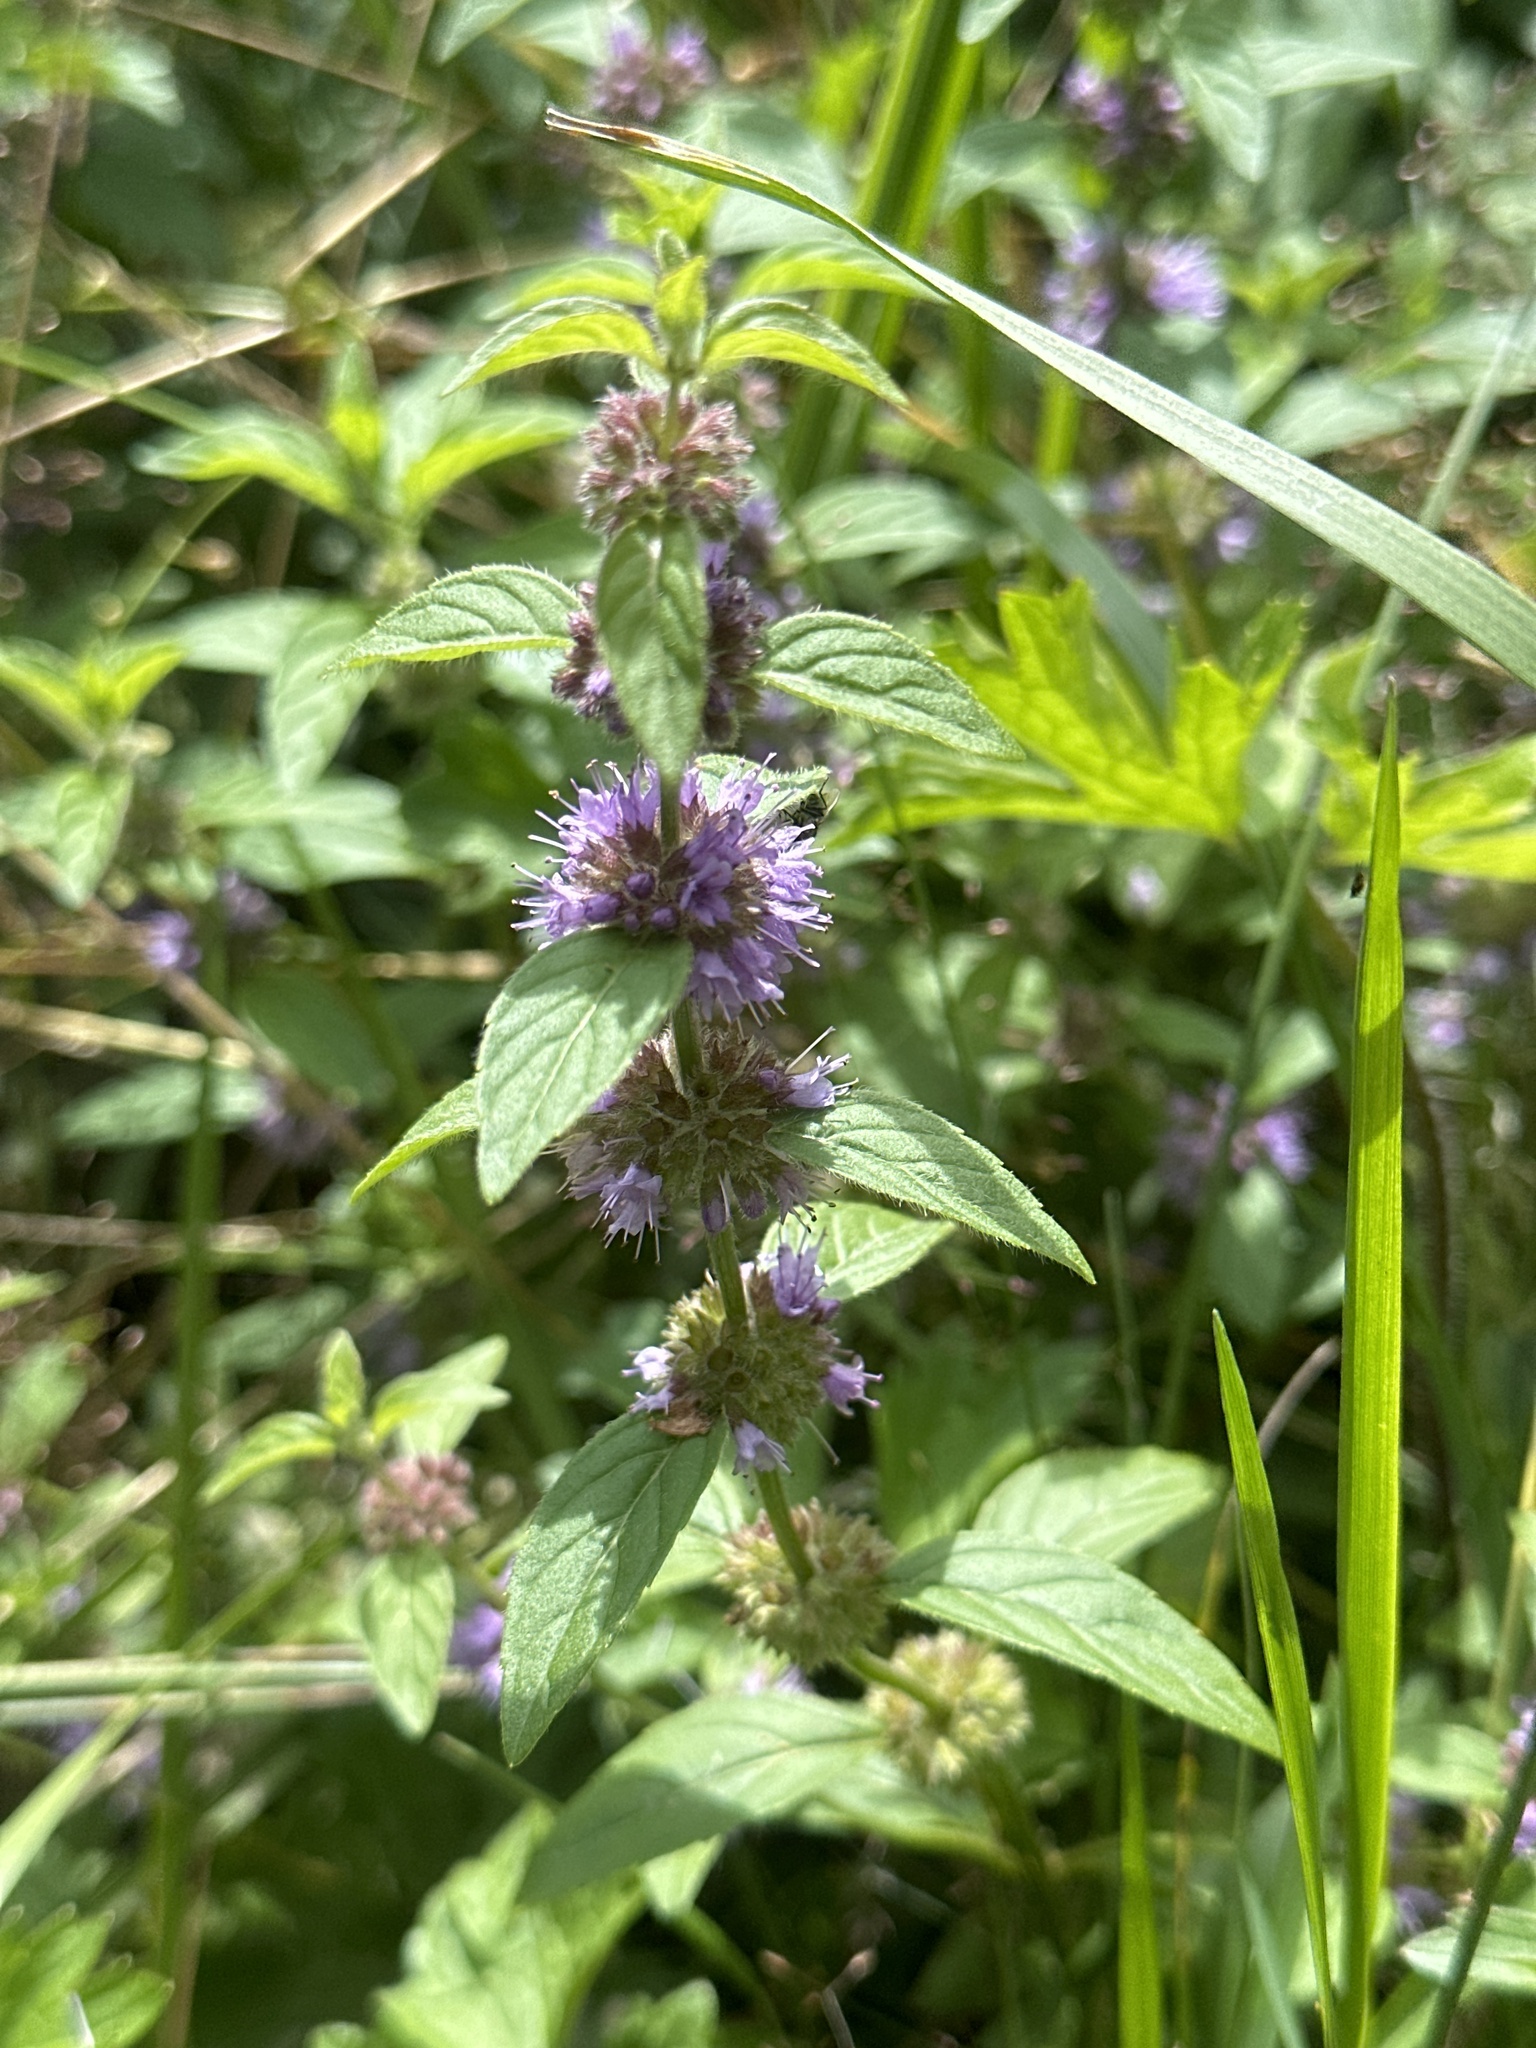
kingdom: Plantae
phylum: Tracheophyta
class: Magnoliopsida
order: Lamiales
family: Lamiaceae
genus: Mentha
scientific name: Mentha arvensis
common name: Corn mint
